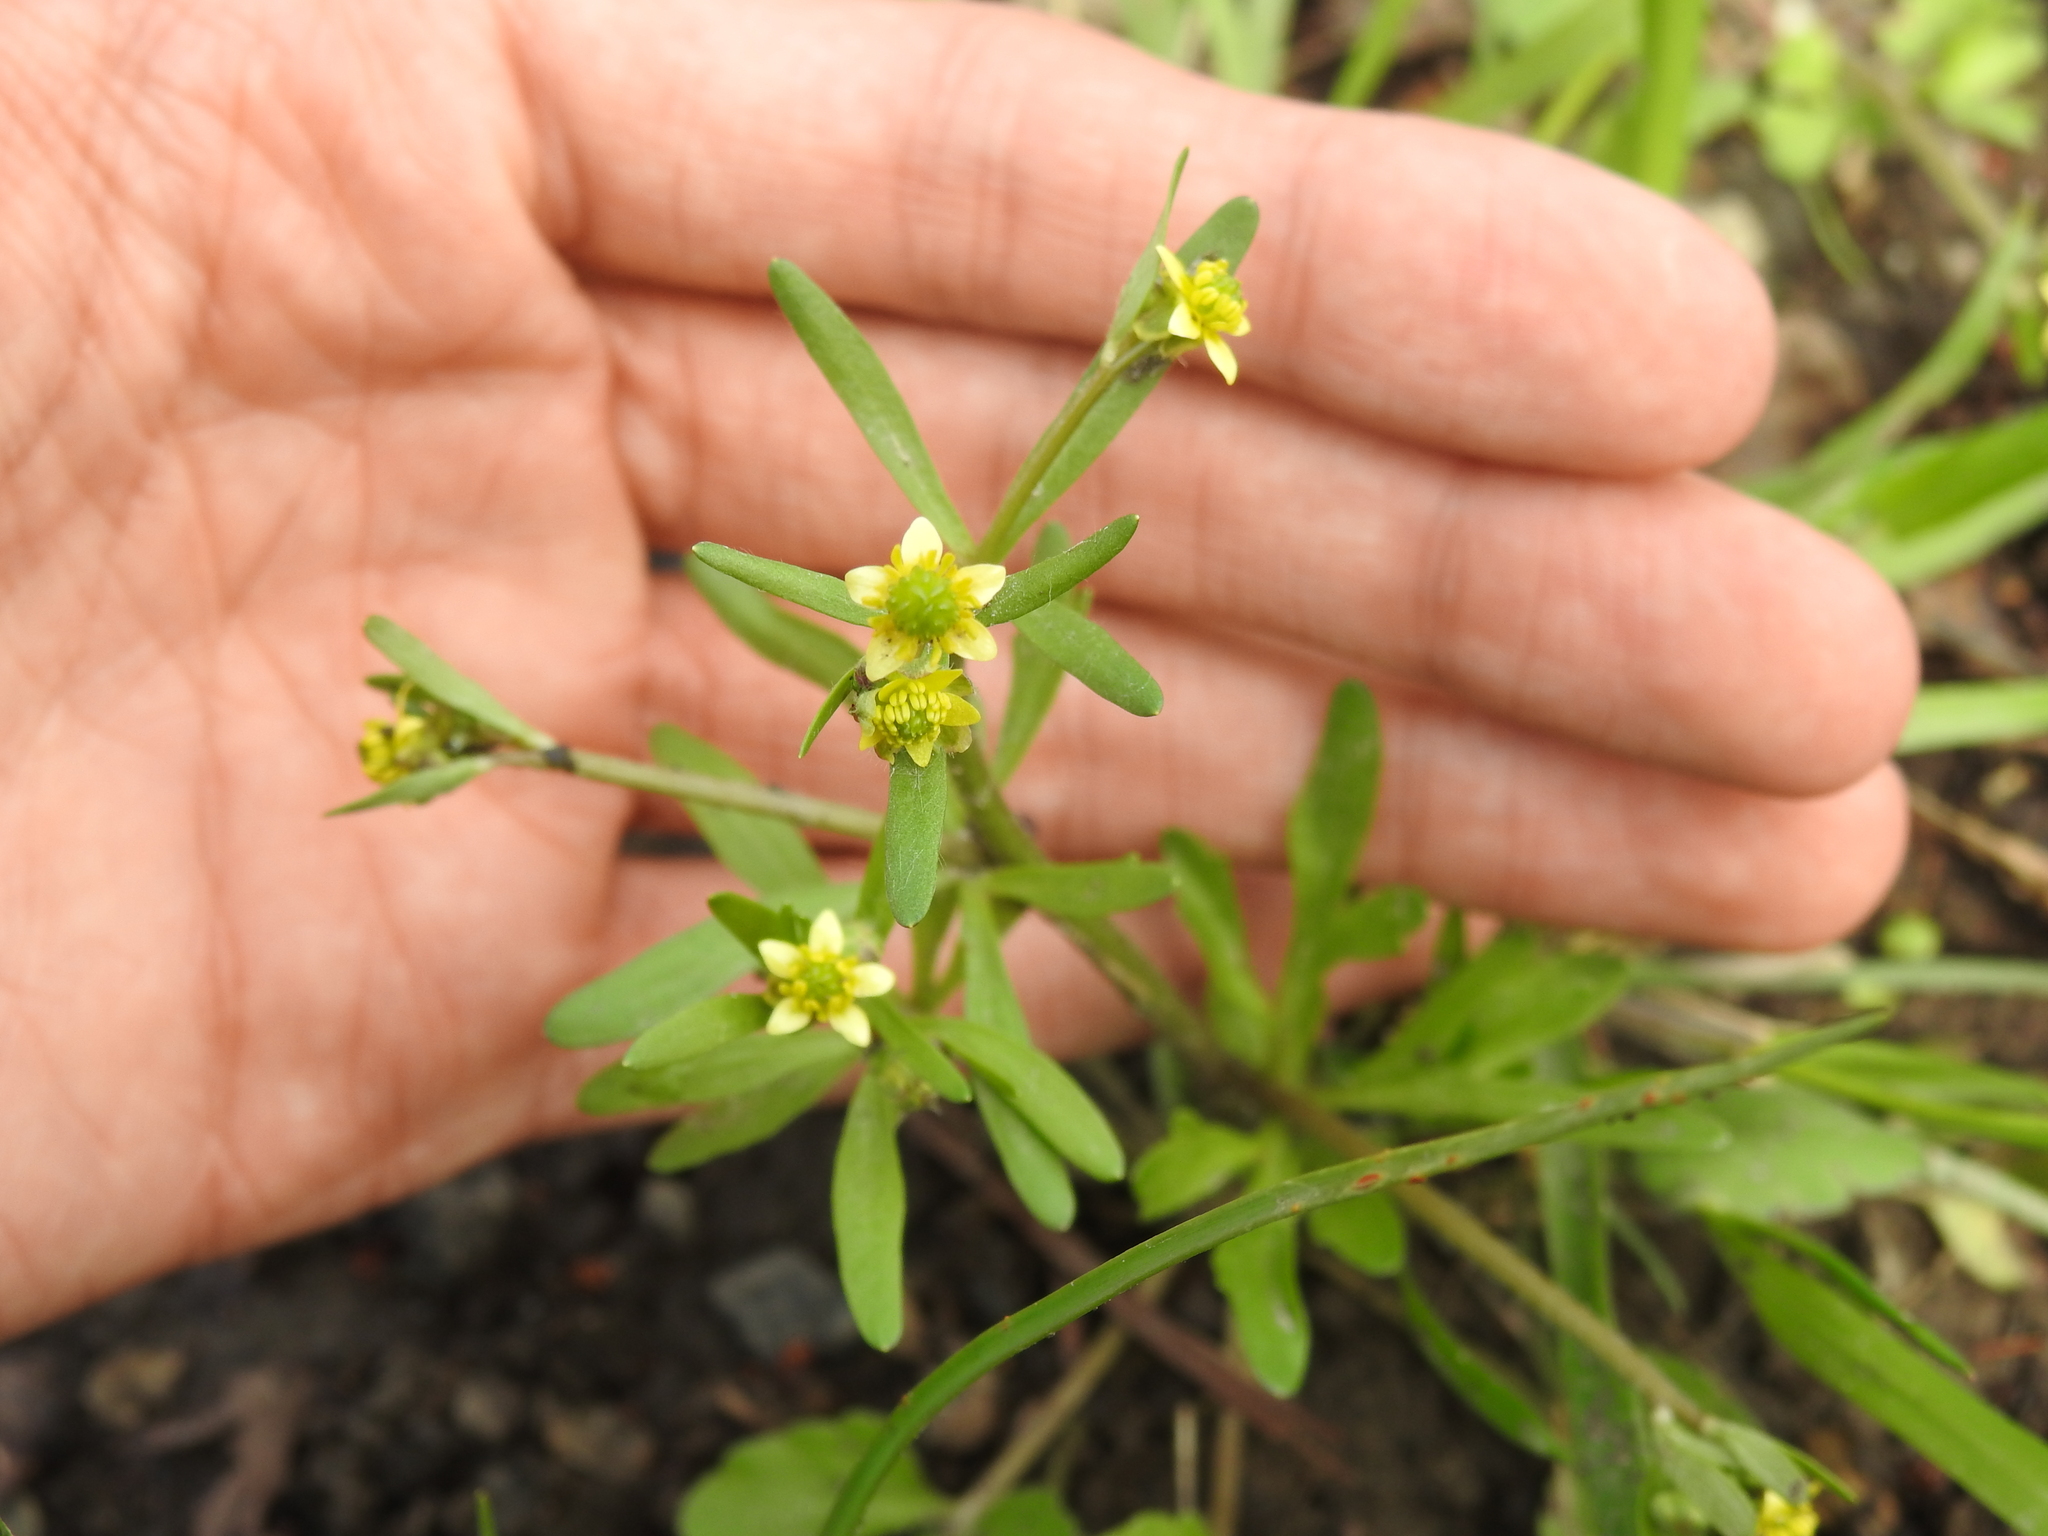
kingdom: Plantae
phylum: Tracheophyta
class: Magnoliopsida
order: Ranunculales
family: Ranunculaceae
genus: Ranunculus
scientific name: Ranunculus micranthus
